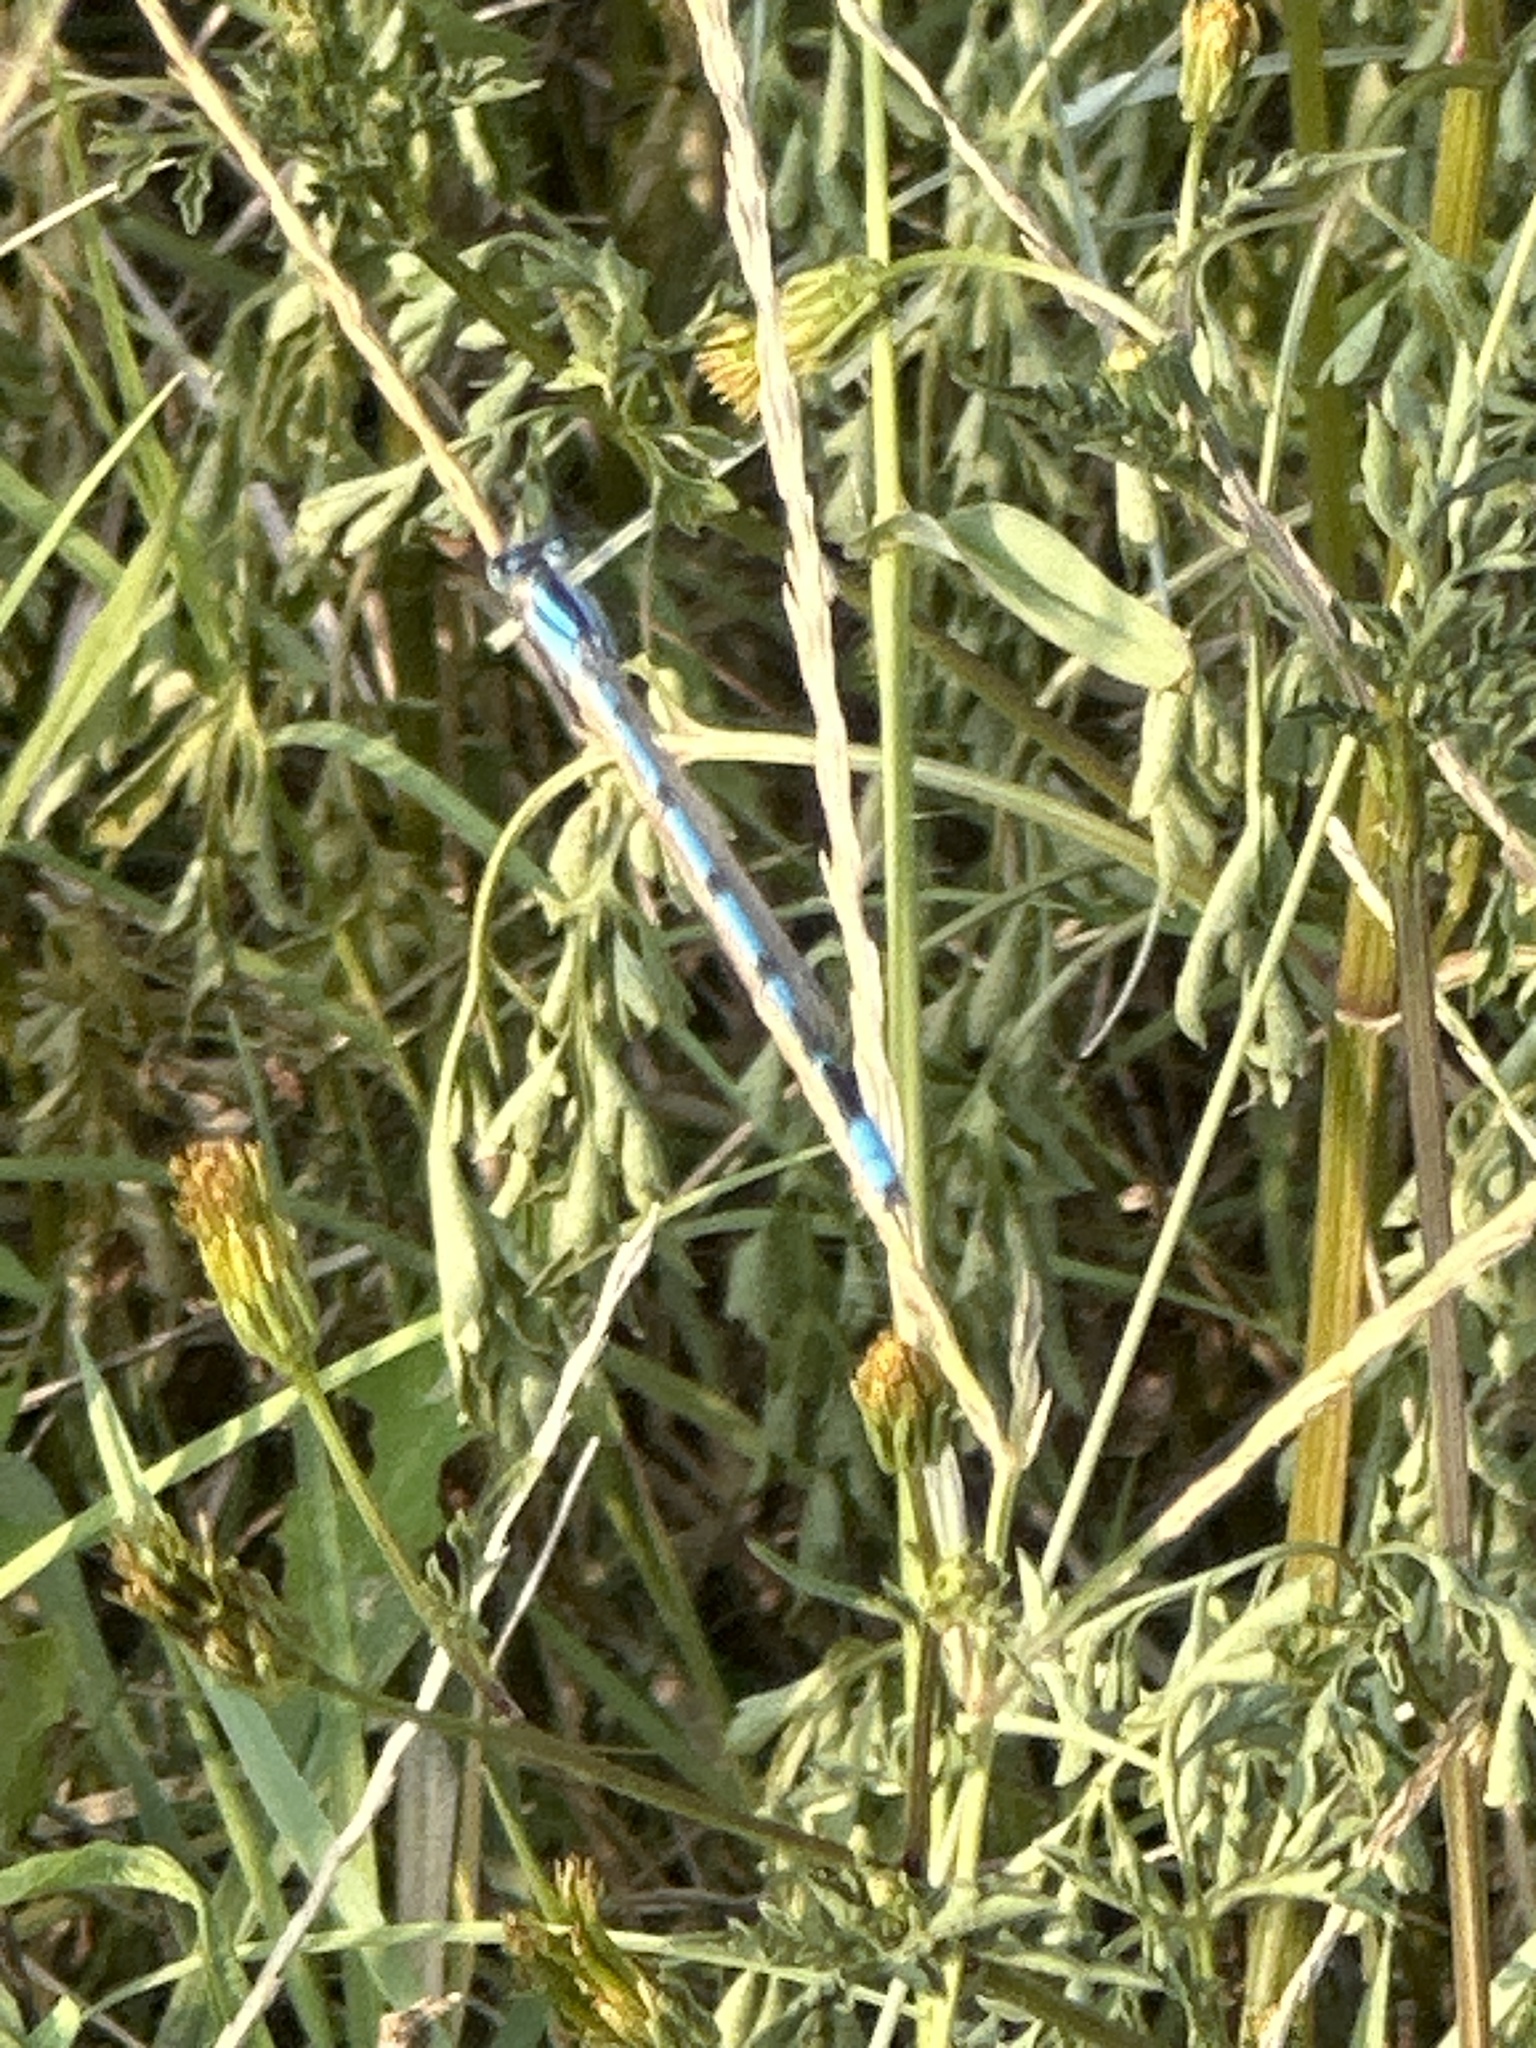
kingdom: Animalia
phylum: Arthropoda
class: Insecta
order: Odonata
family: Coenagrionidae
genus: Enallagma
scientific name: Enallagma civile
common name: Damselfly
